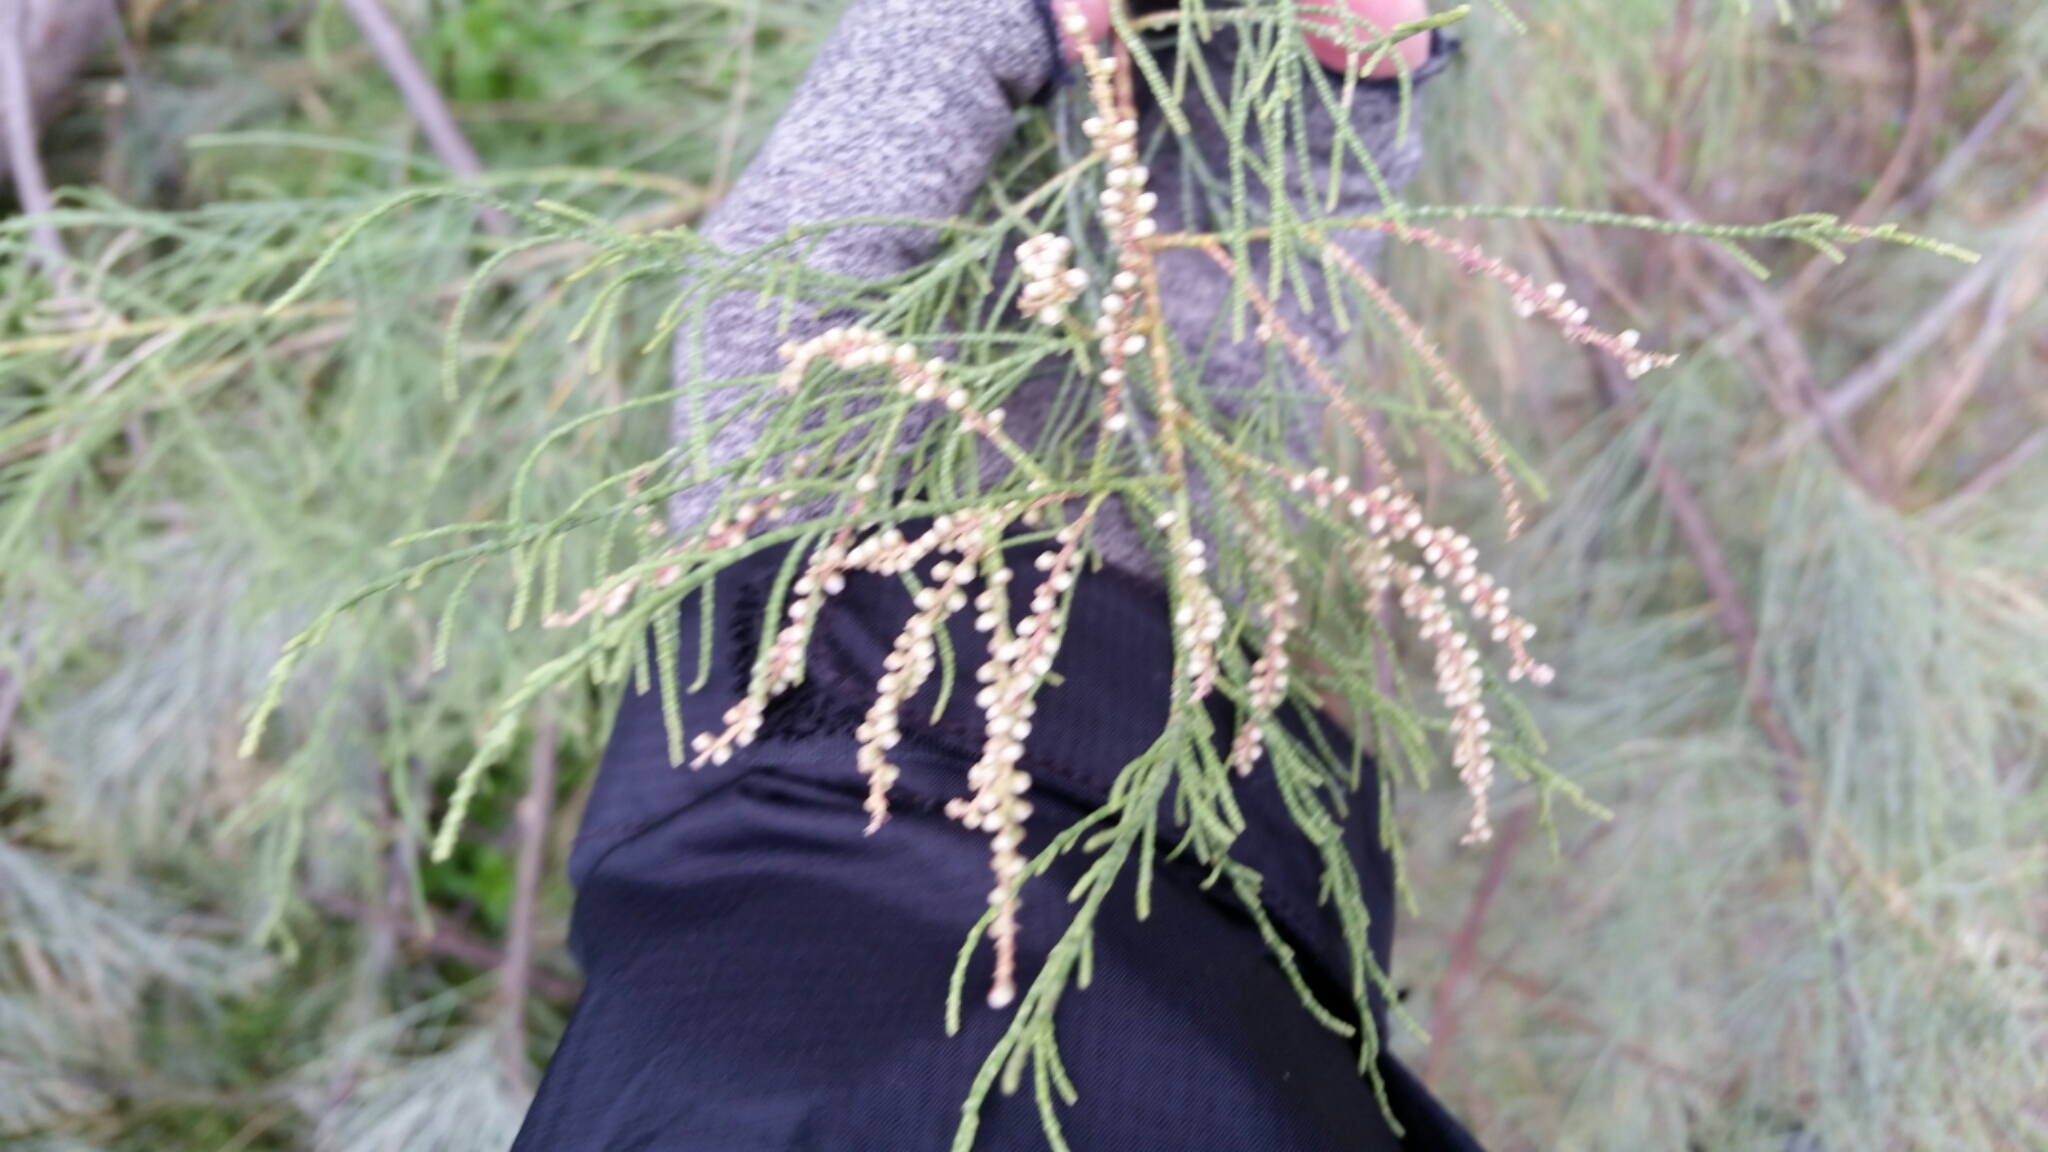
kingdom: Plantae
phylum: Tracheophyta
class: Magnoliopsida
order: Caryophyllales
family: Tamaricaceae
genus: Tamarix
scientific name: Tamarix aphylla
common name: Athel tamarisk
